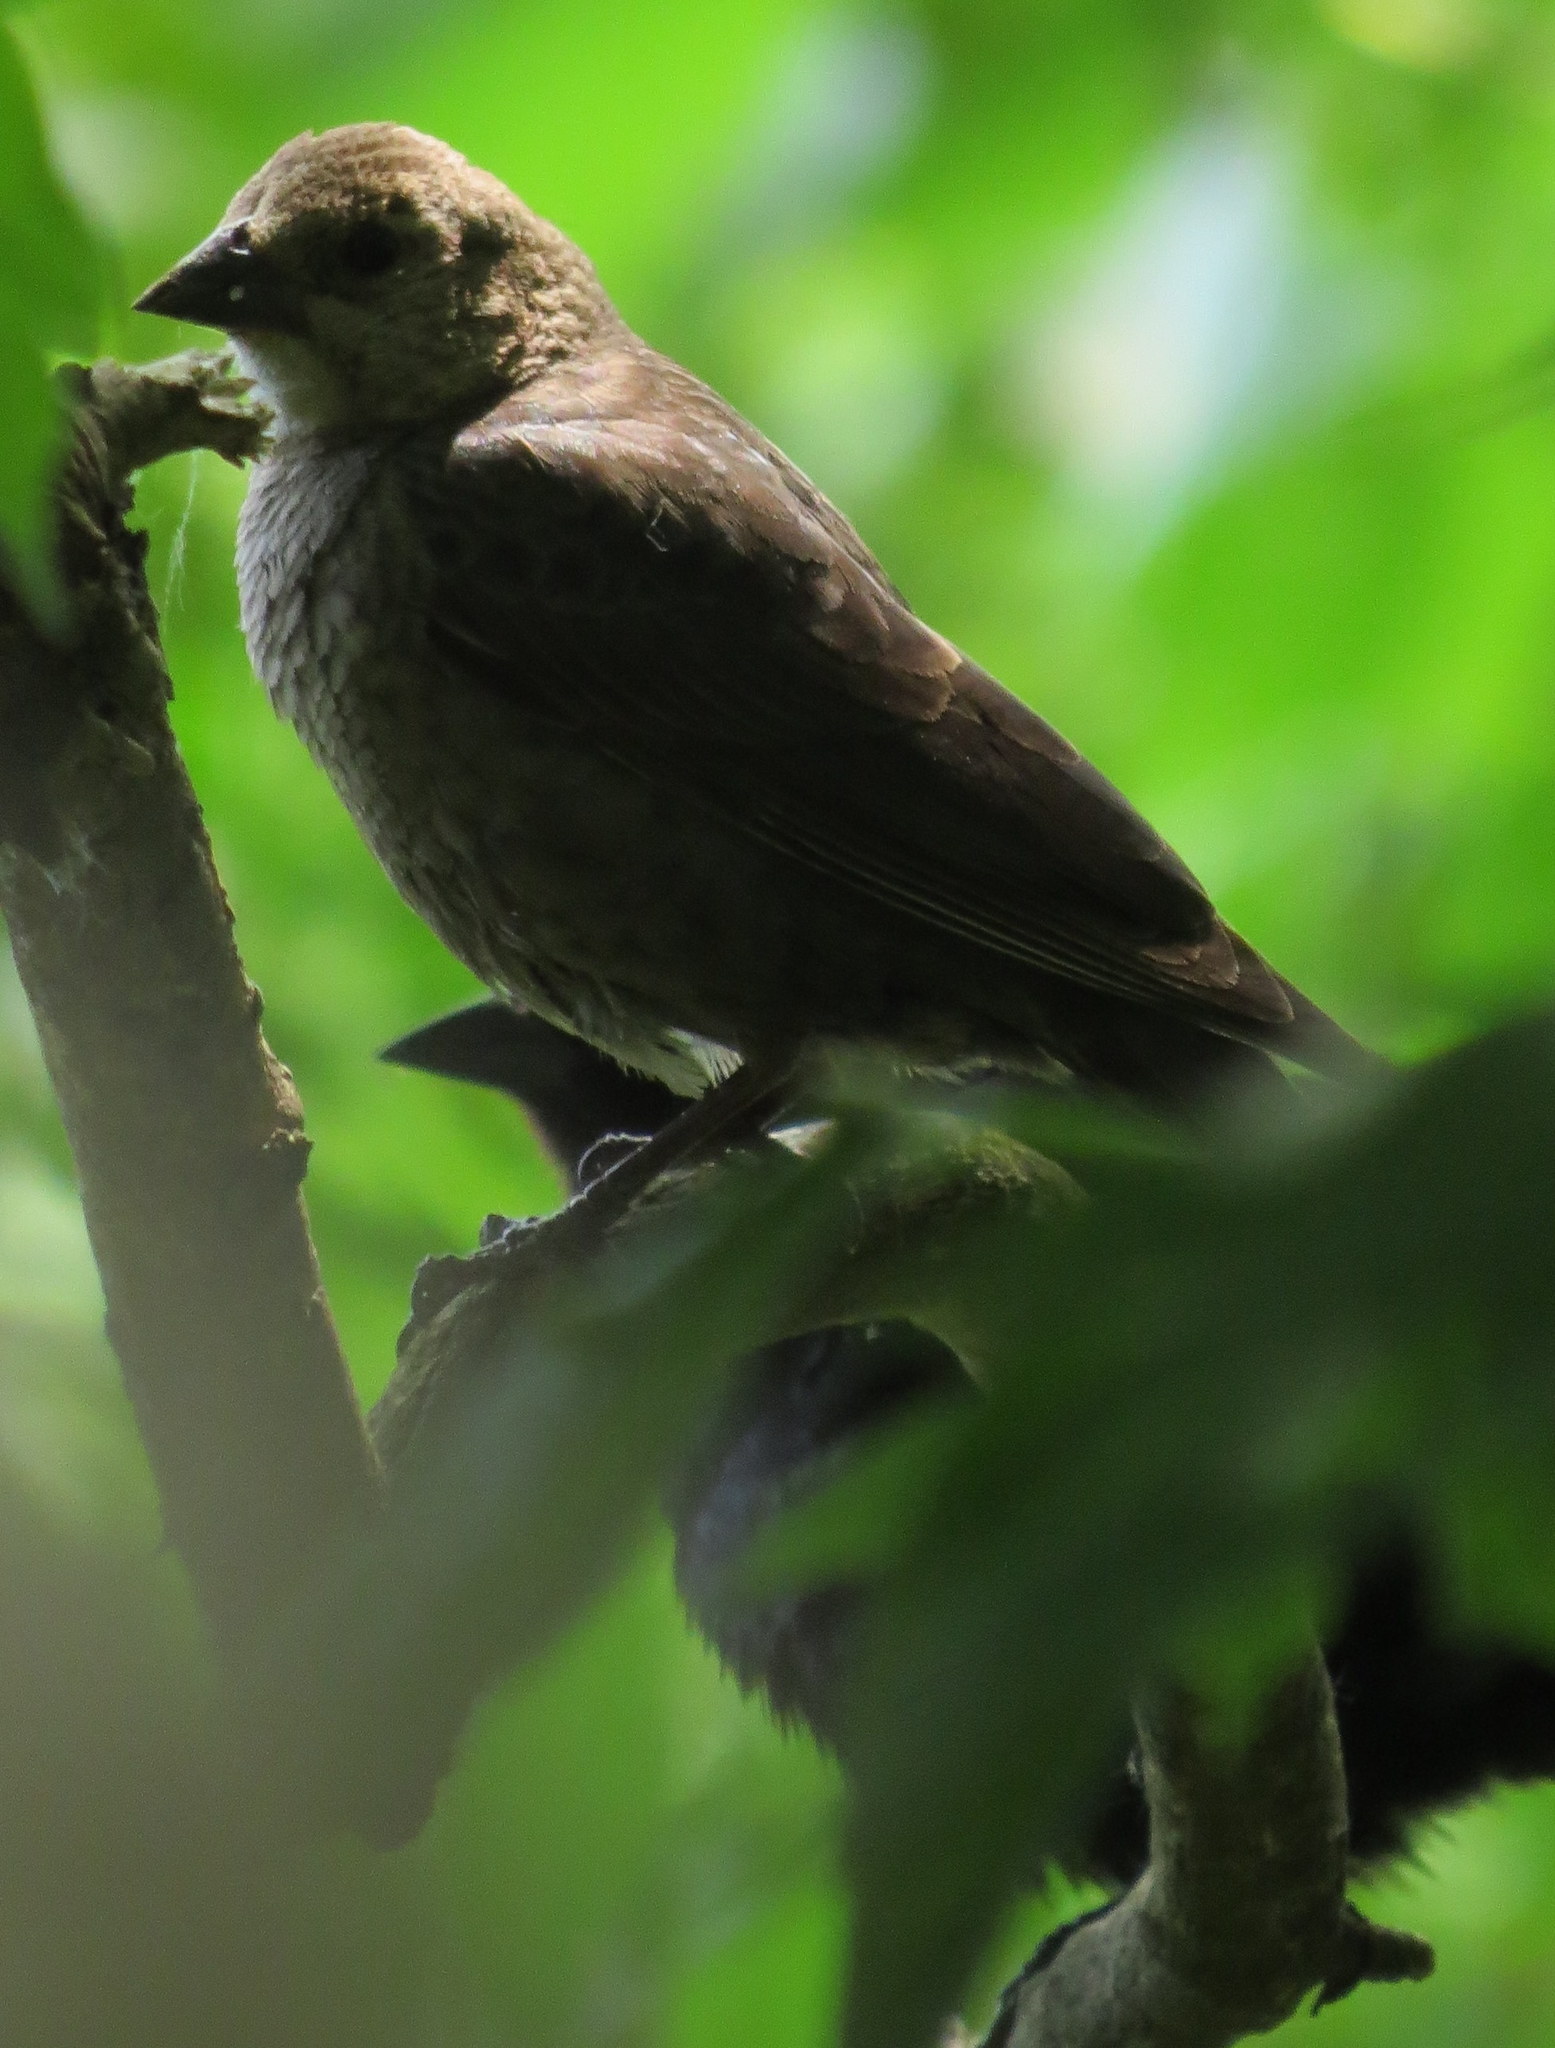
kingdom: Animalia
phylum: Chordata
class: Aves
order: Passeriformes
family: Icteridae
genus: Molothrus
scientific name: Molothrus ater
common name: Brown-headed cowbird
